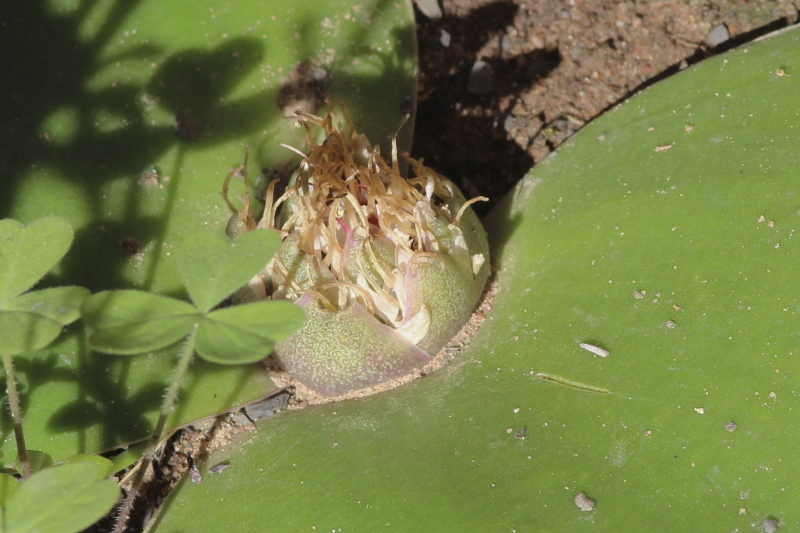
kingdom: Plantae
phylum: Tracheophyta
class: Liliopsida
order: Asparagales
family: Asparagaceae
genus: Massonia
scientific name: Massonia depressa
